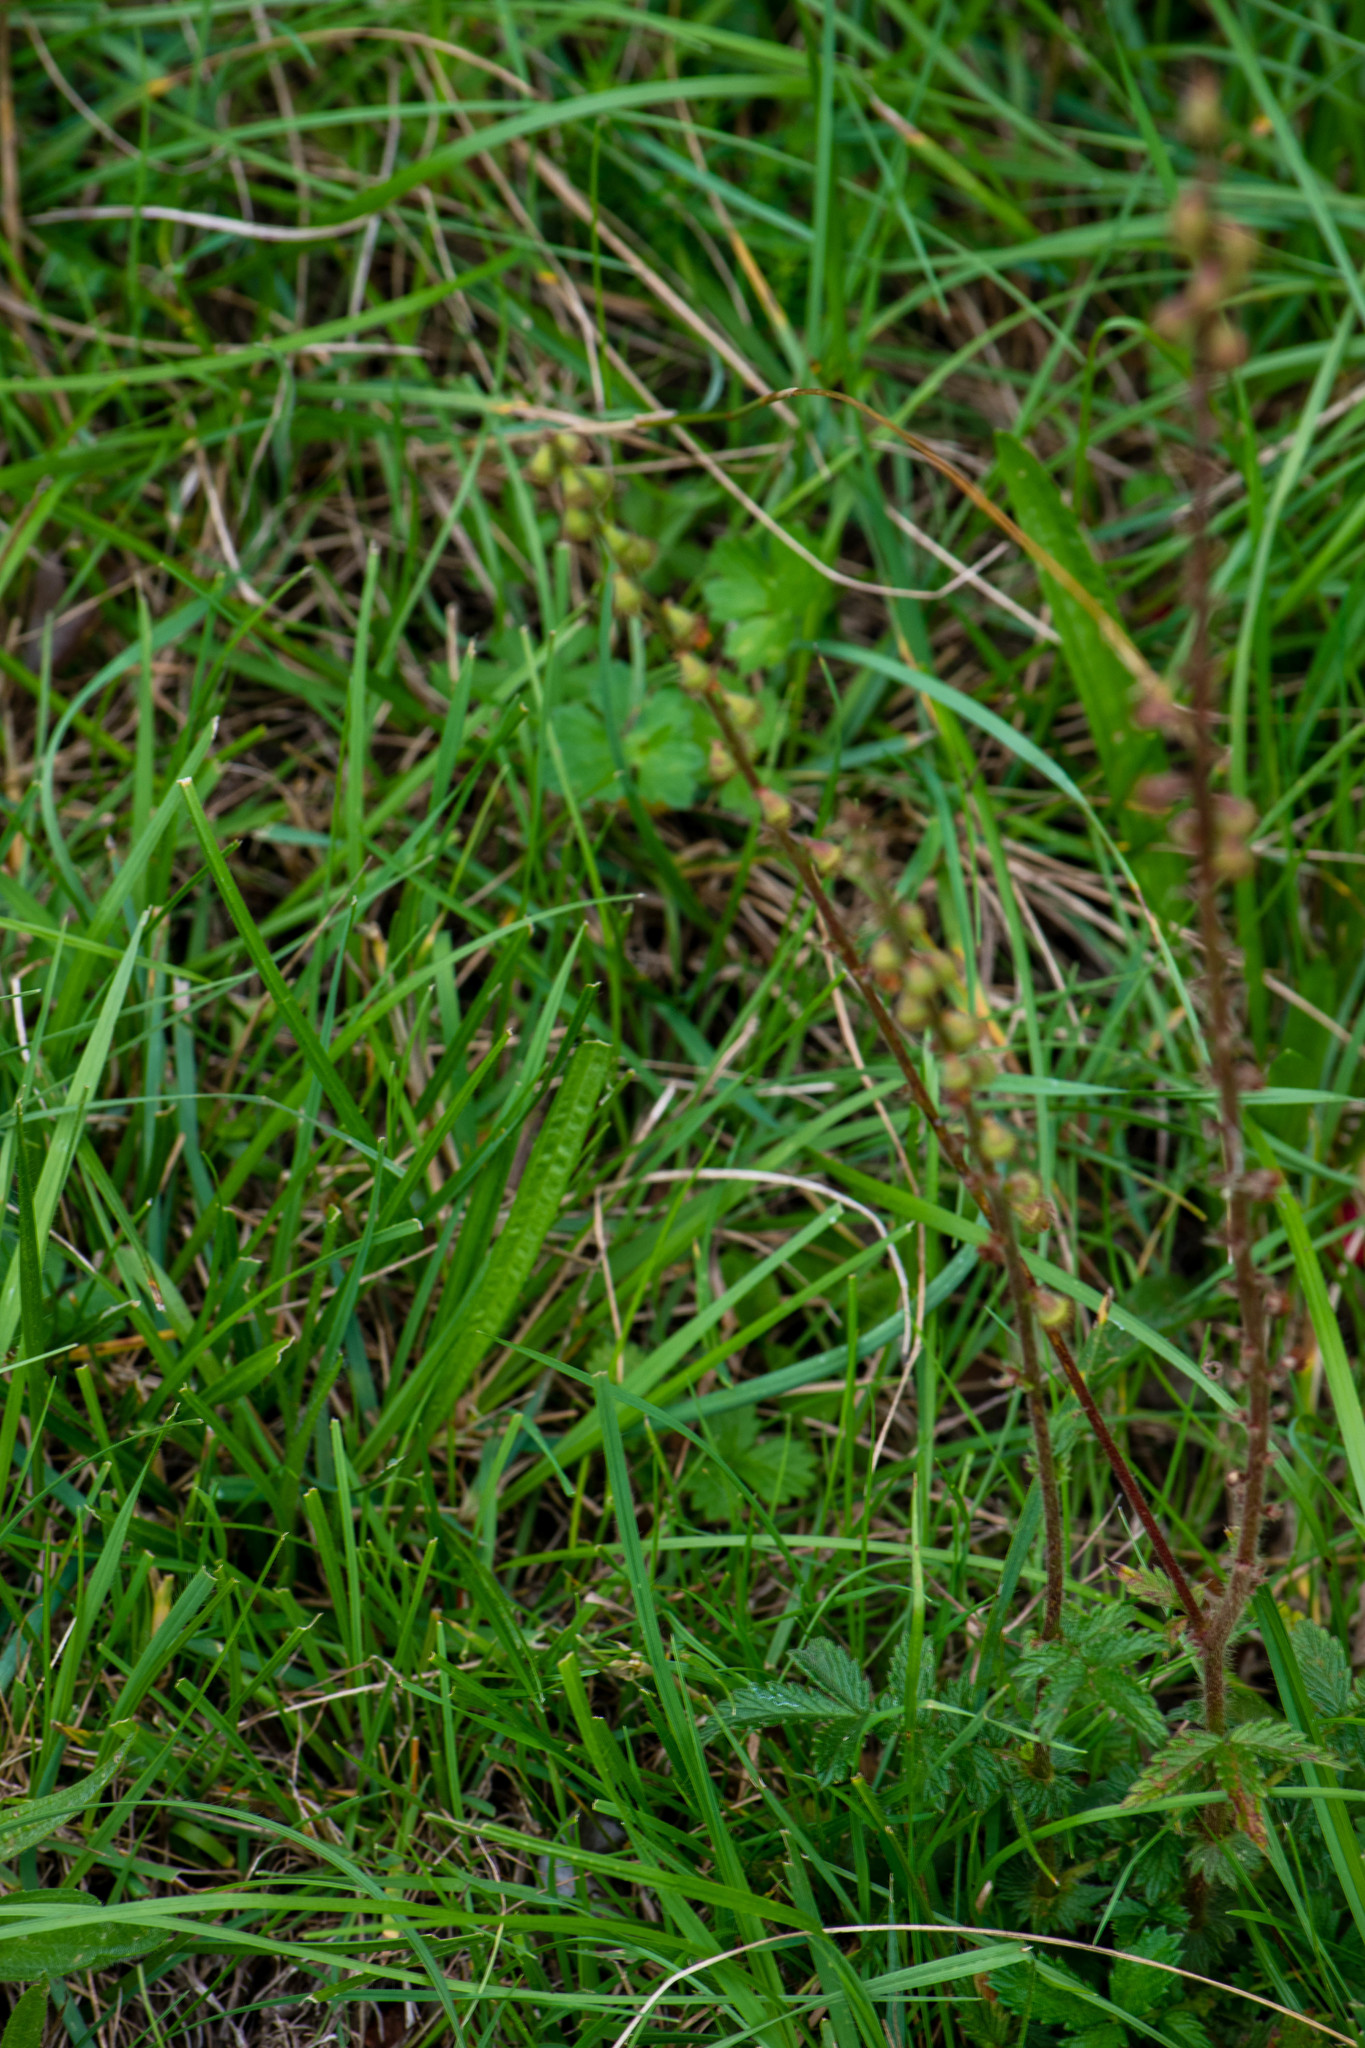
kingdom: Plantae
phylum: Tracheophyta
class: Magnoliopsida
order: Rosales
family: Rosaceae
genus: Agrimonia
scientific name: Agrimonia eupatoria
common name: Agrimony
